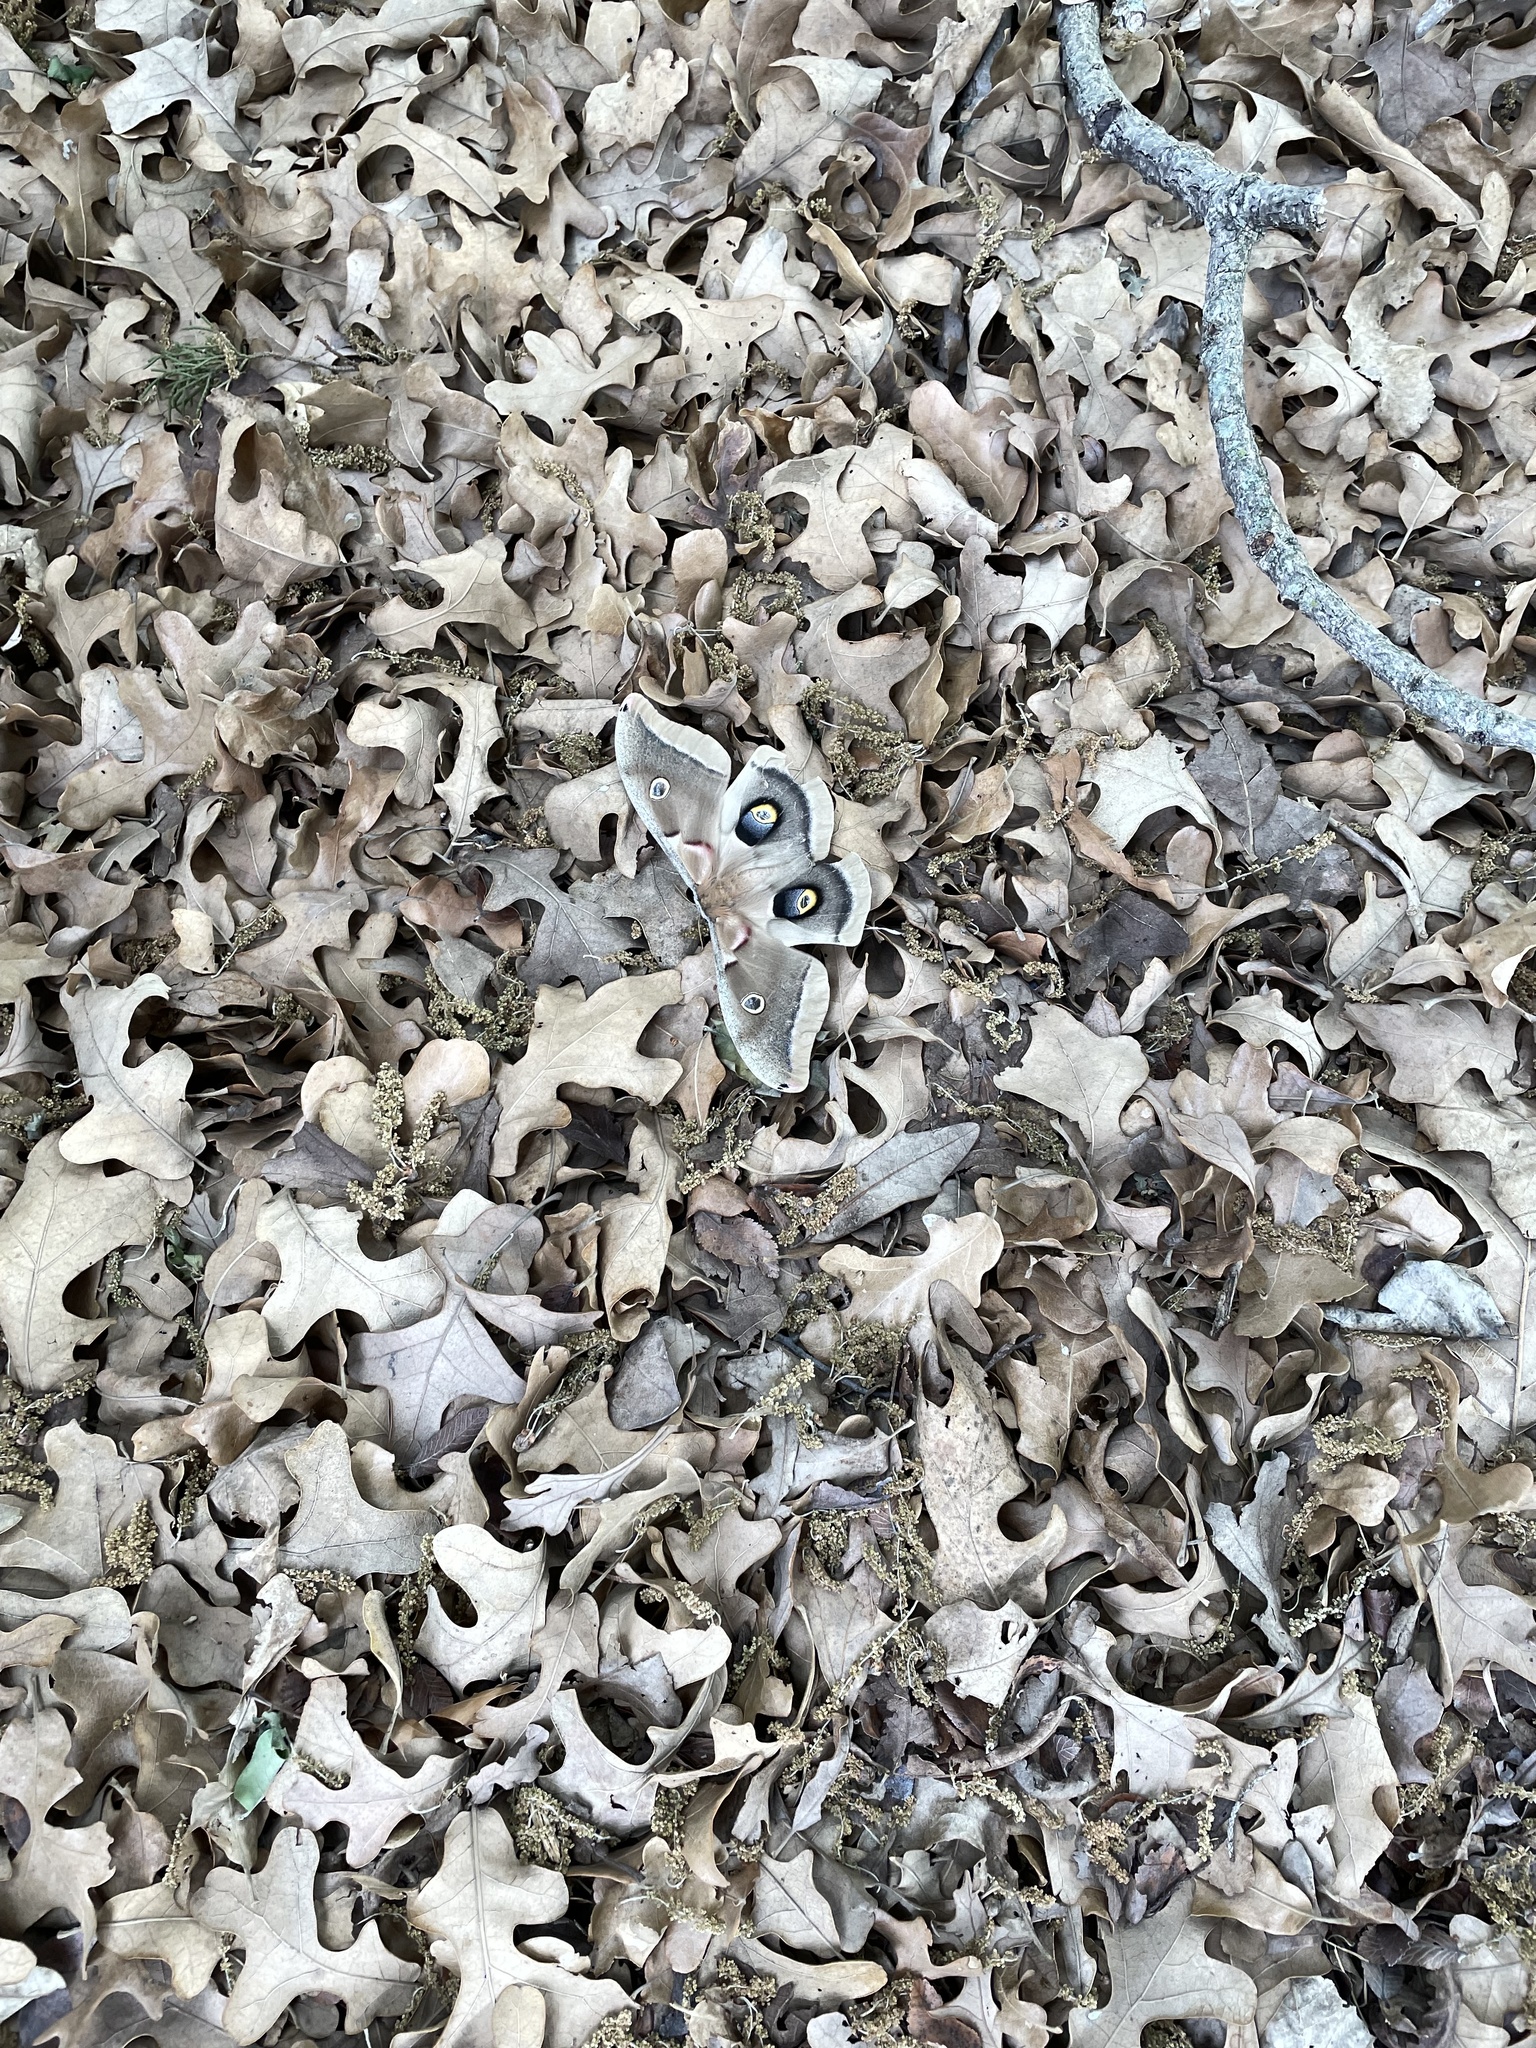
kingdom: Animalia
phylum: Arthropoda
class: Insecta
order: Lepidoptera
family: Saturniidae
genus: Antheraea
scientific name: Antheraea polyphemus
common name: Polyphemus moth
